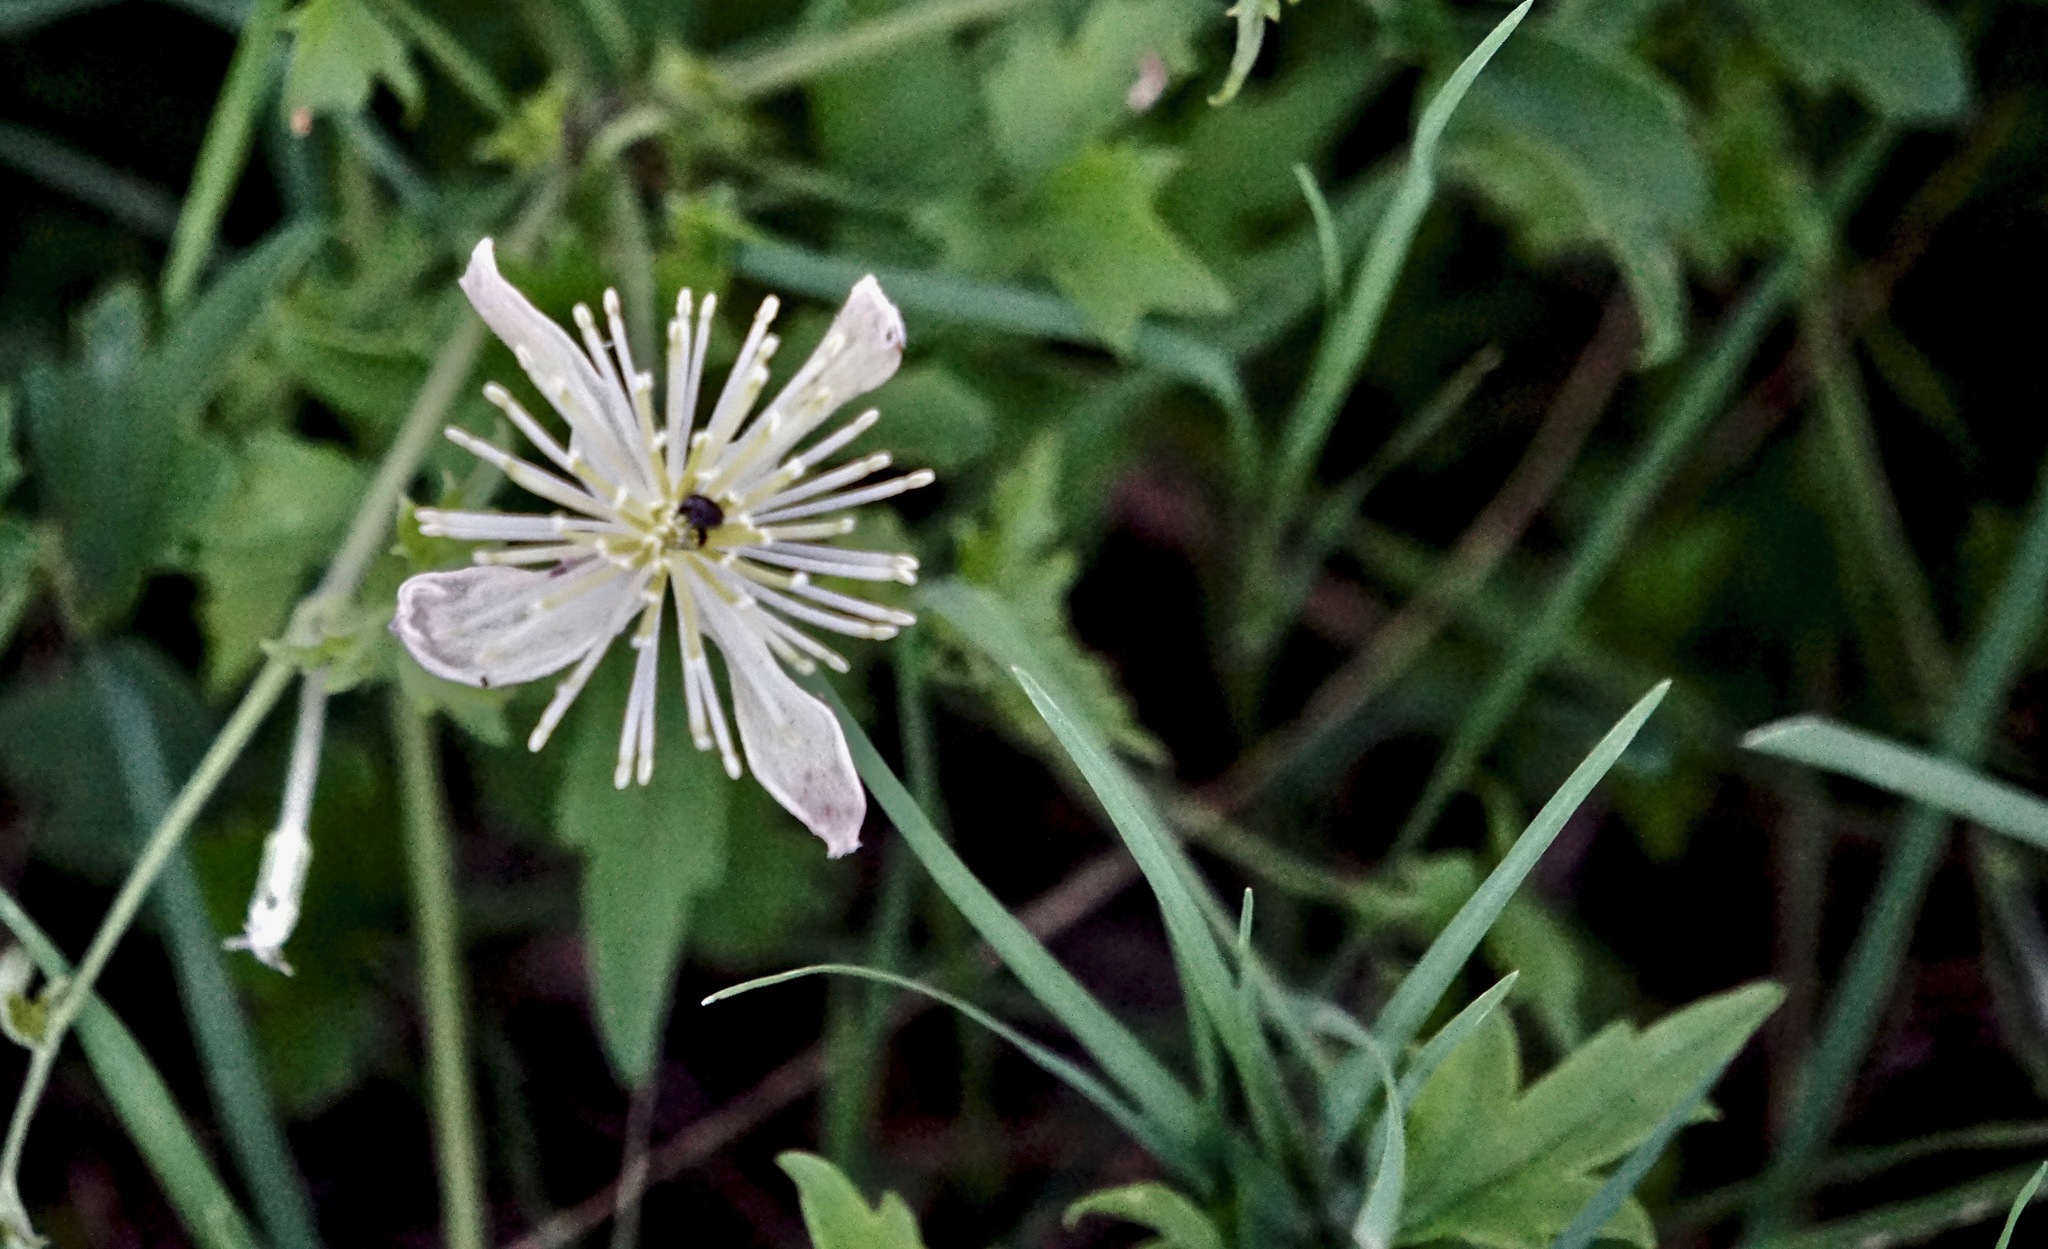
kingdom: Plantae
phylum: Tracheophyta
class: Magnoliopsida
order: Ranunculales
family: Ranunculaceae
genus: Clematis
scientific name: Clematis drummondii
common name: Texas virgin's bower
